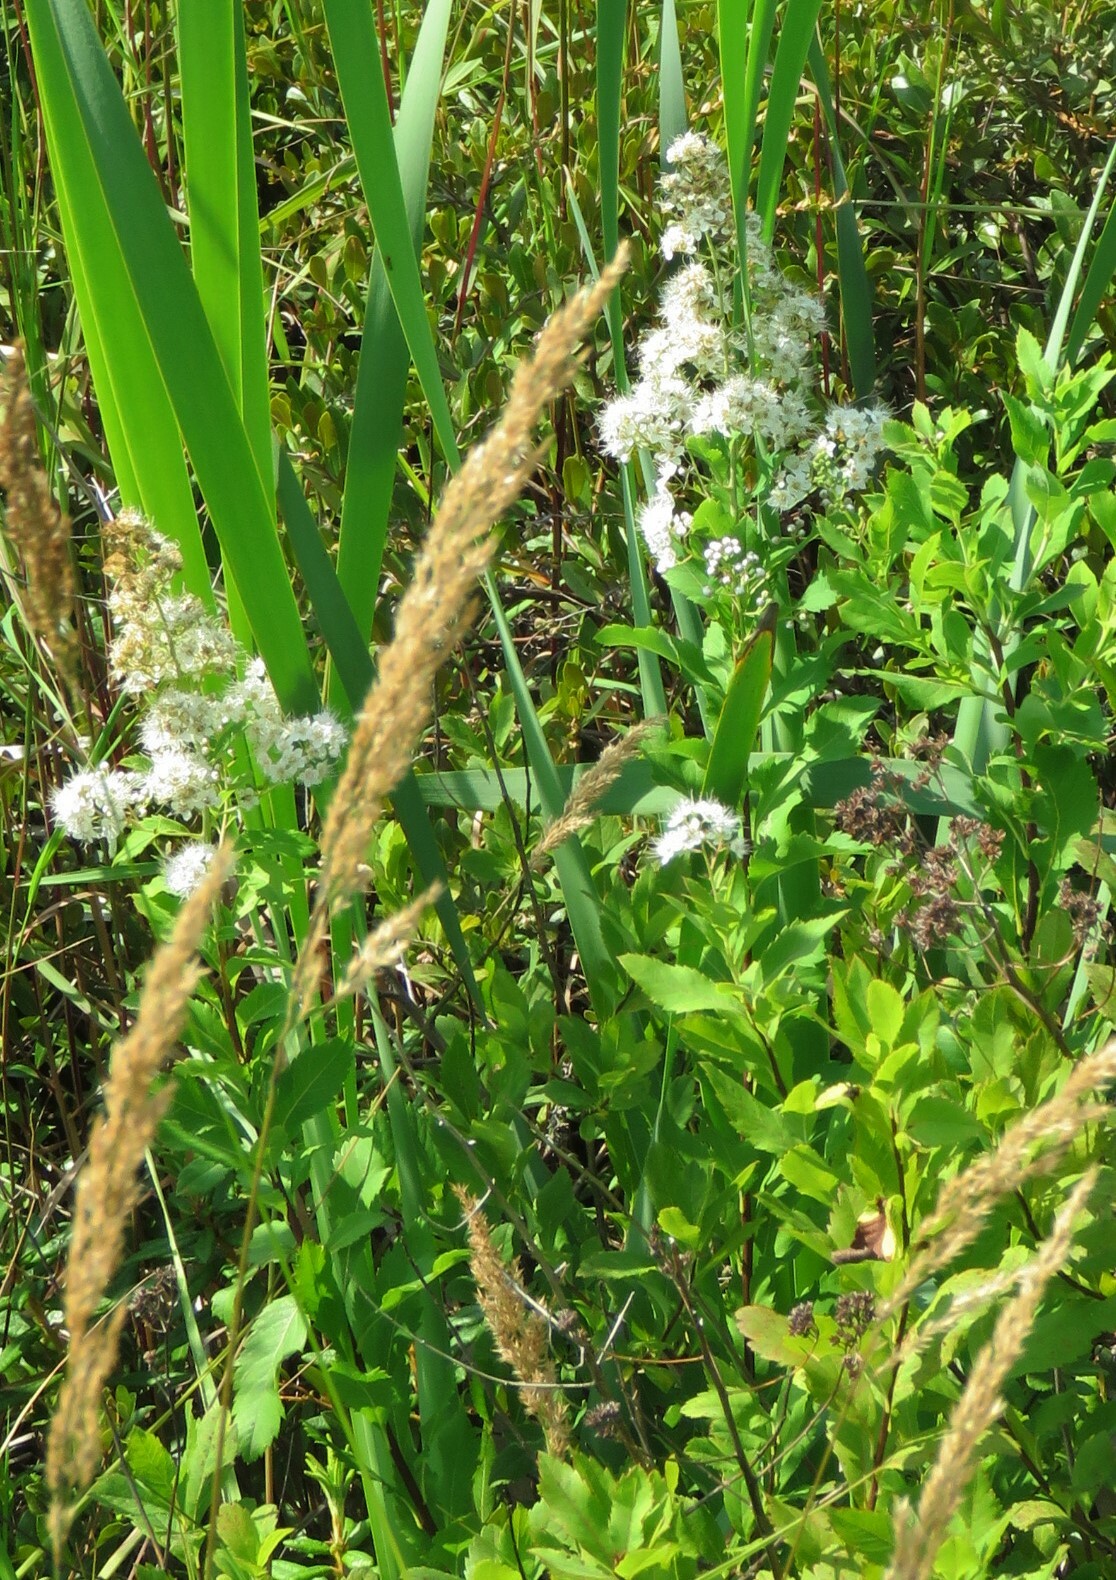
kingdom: Plantae
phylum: Tracheophyta
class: Magnoliopsida
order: Rosales
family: Rosaceae
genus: Spiraea
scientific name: Spiraea alba
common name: Pale bridewort
